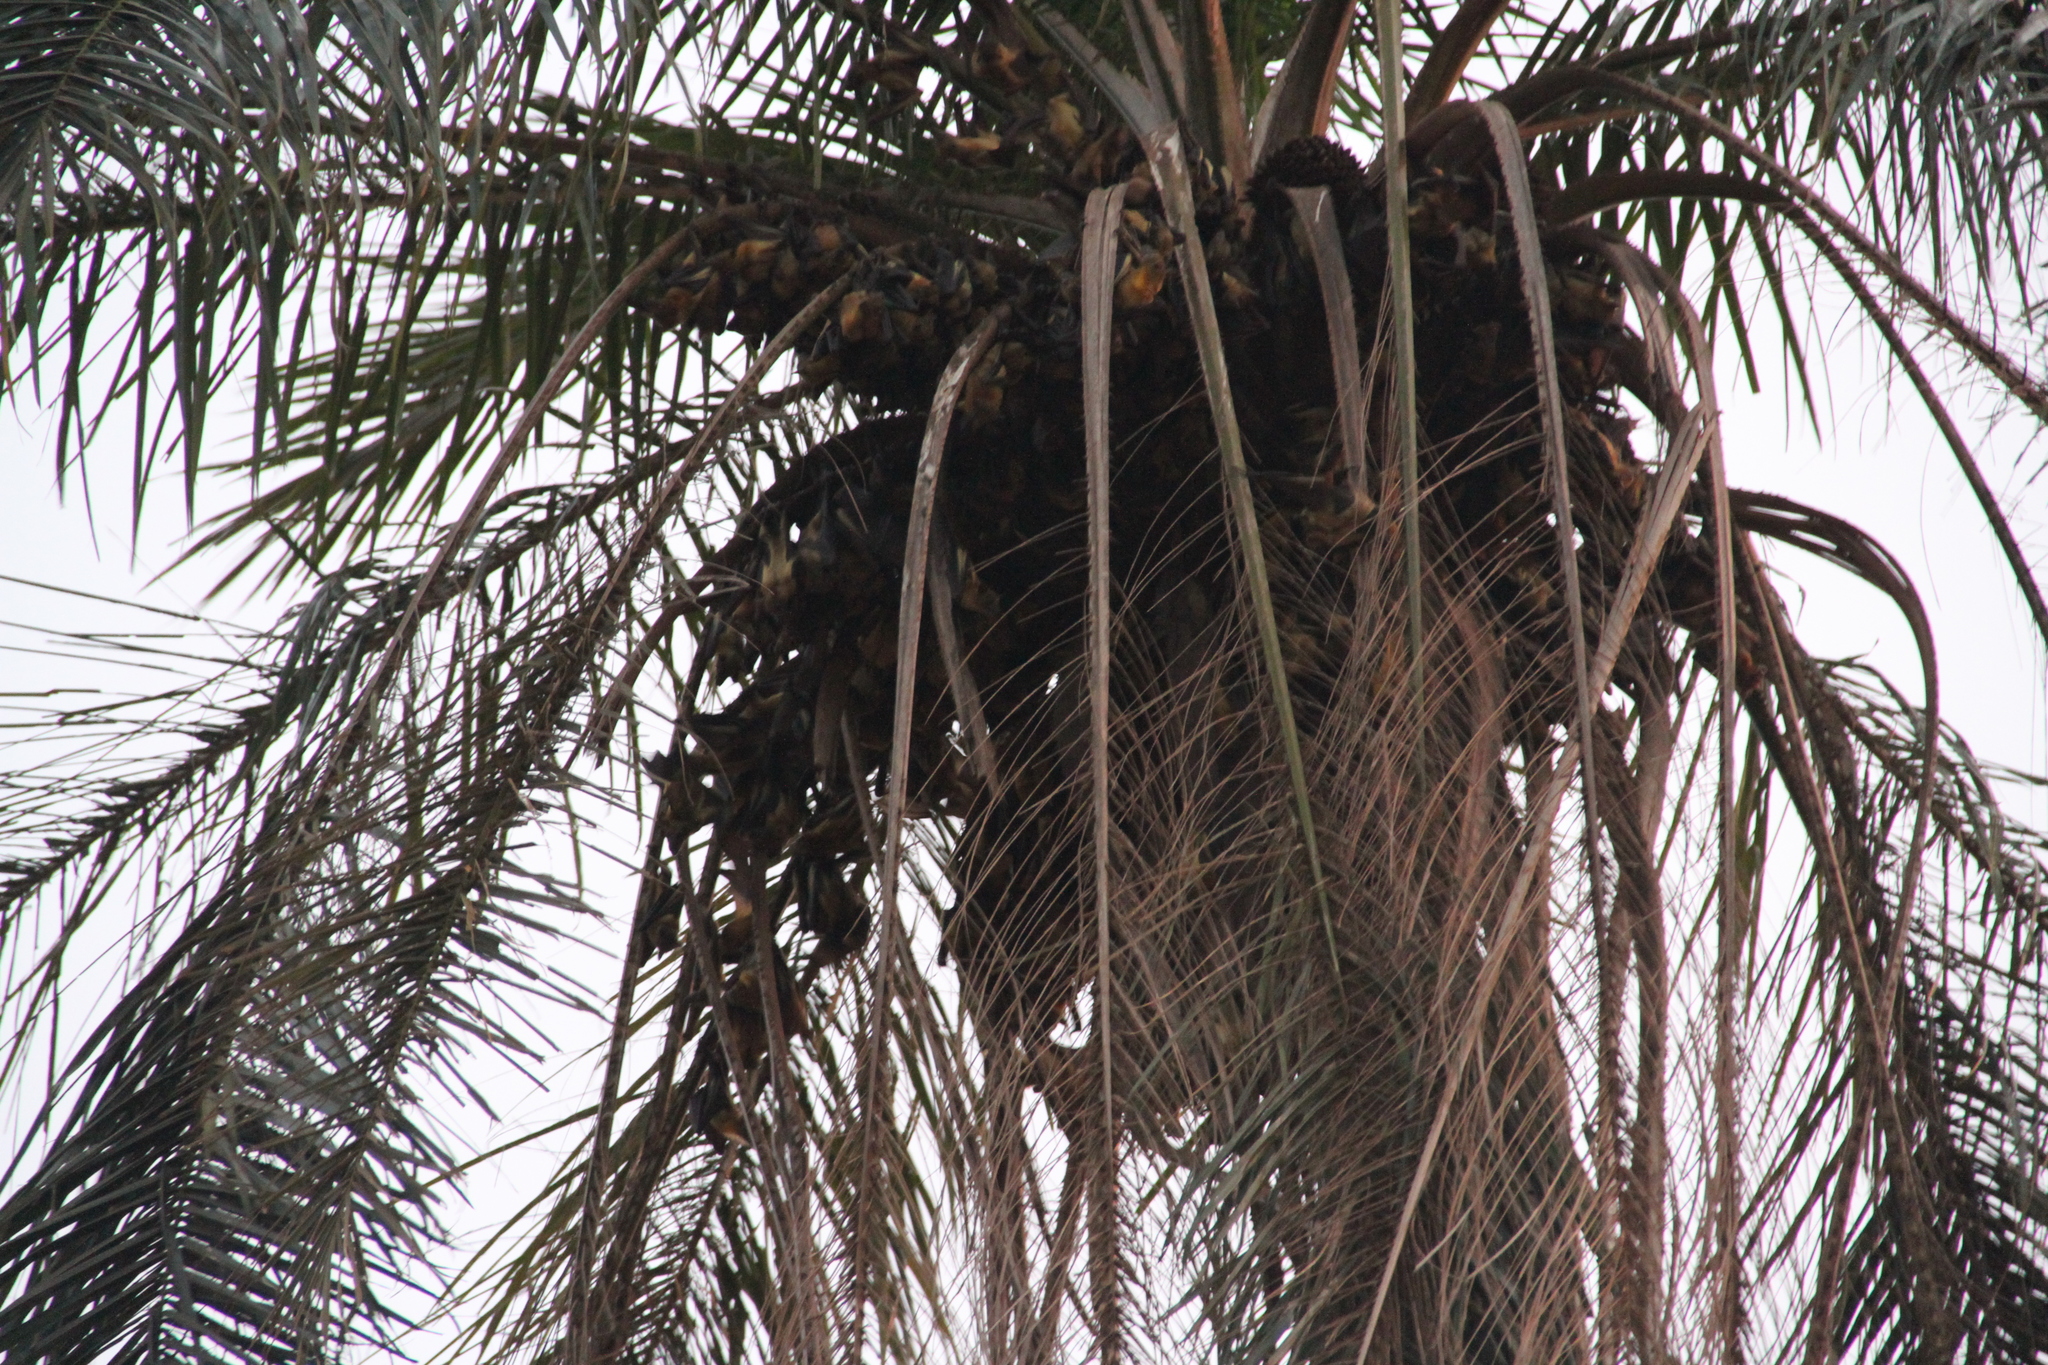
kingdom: Animalia
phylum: Chordata
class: Mammalia
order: Chiroptera
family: Pteropodidae
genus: Eidolon
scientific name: Eidolon helvum
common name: Straw-colored fruit bat
